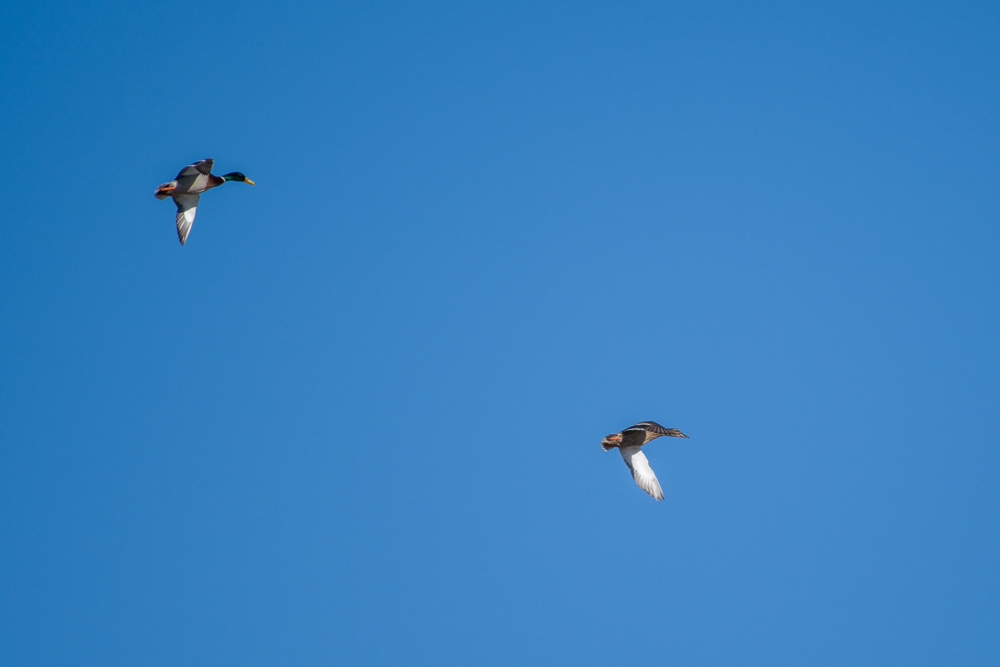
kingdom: Animalia
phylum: Chordata
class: Aves
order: Anseriformes
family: Anatidae
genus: Anas
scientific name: Anas platyrhynchos
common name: Mallard
